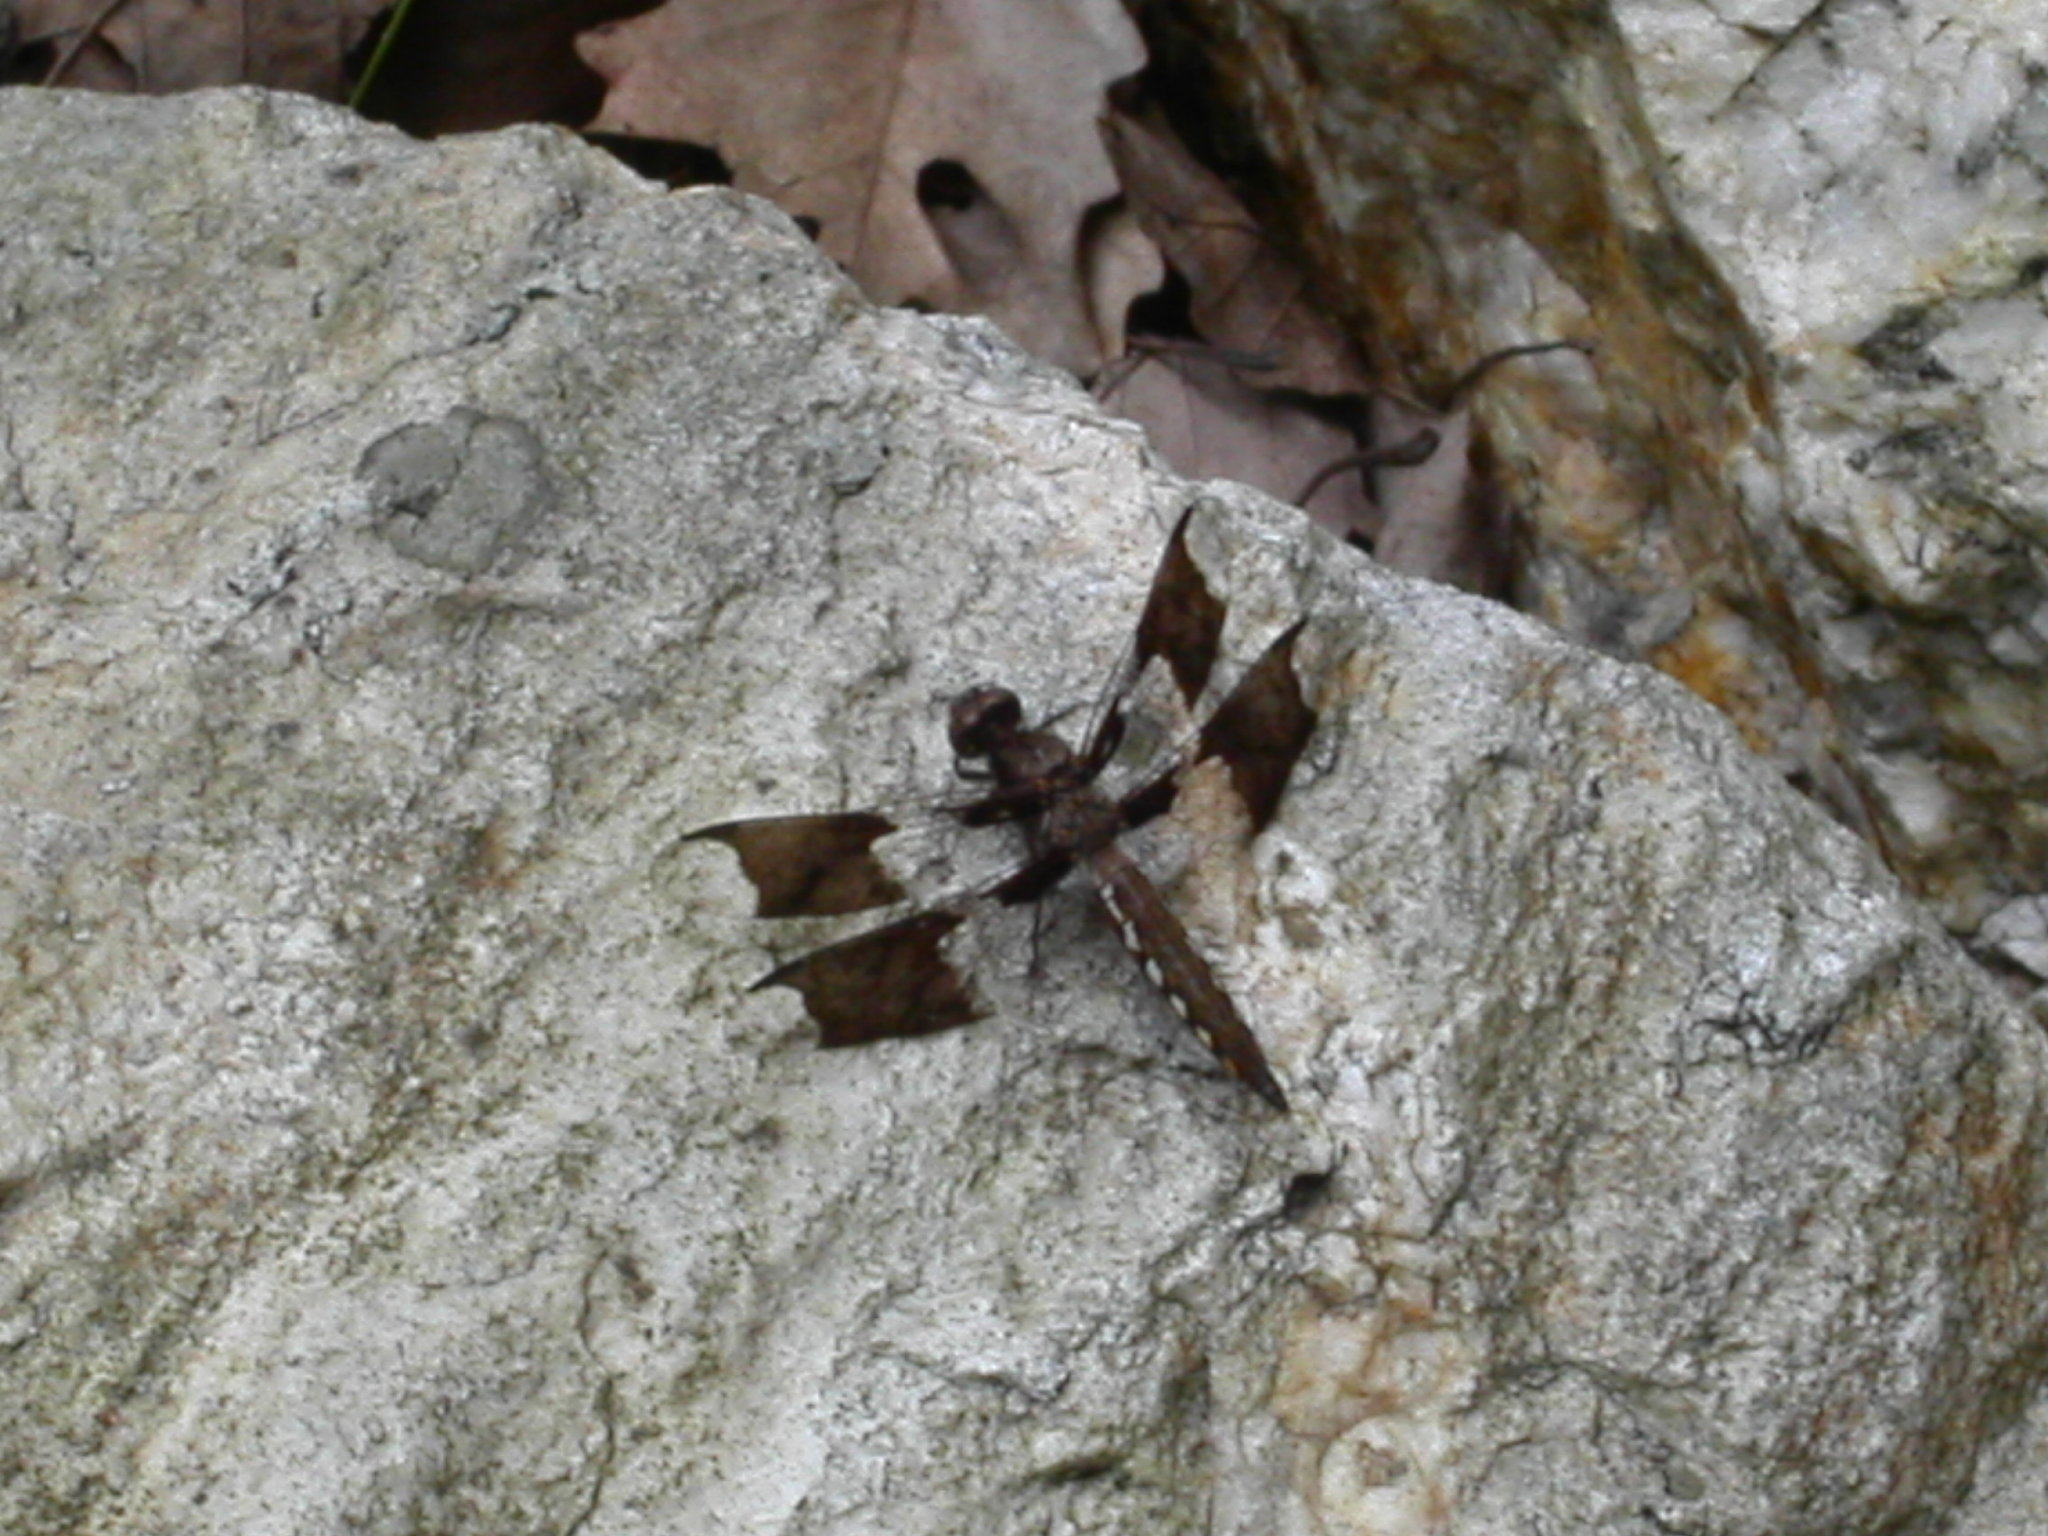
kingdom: Animalia
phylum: Arthropoda
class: Insecta
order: Odonata
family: Libellulidae
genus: Plathemis
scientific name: Plathemis lydia
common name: Common whitetail
